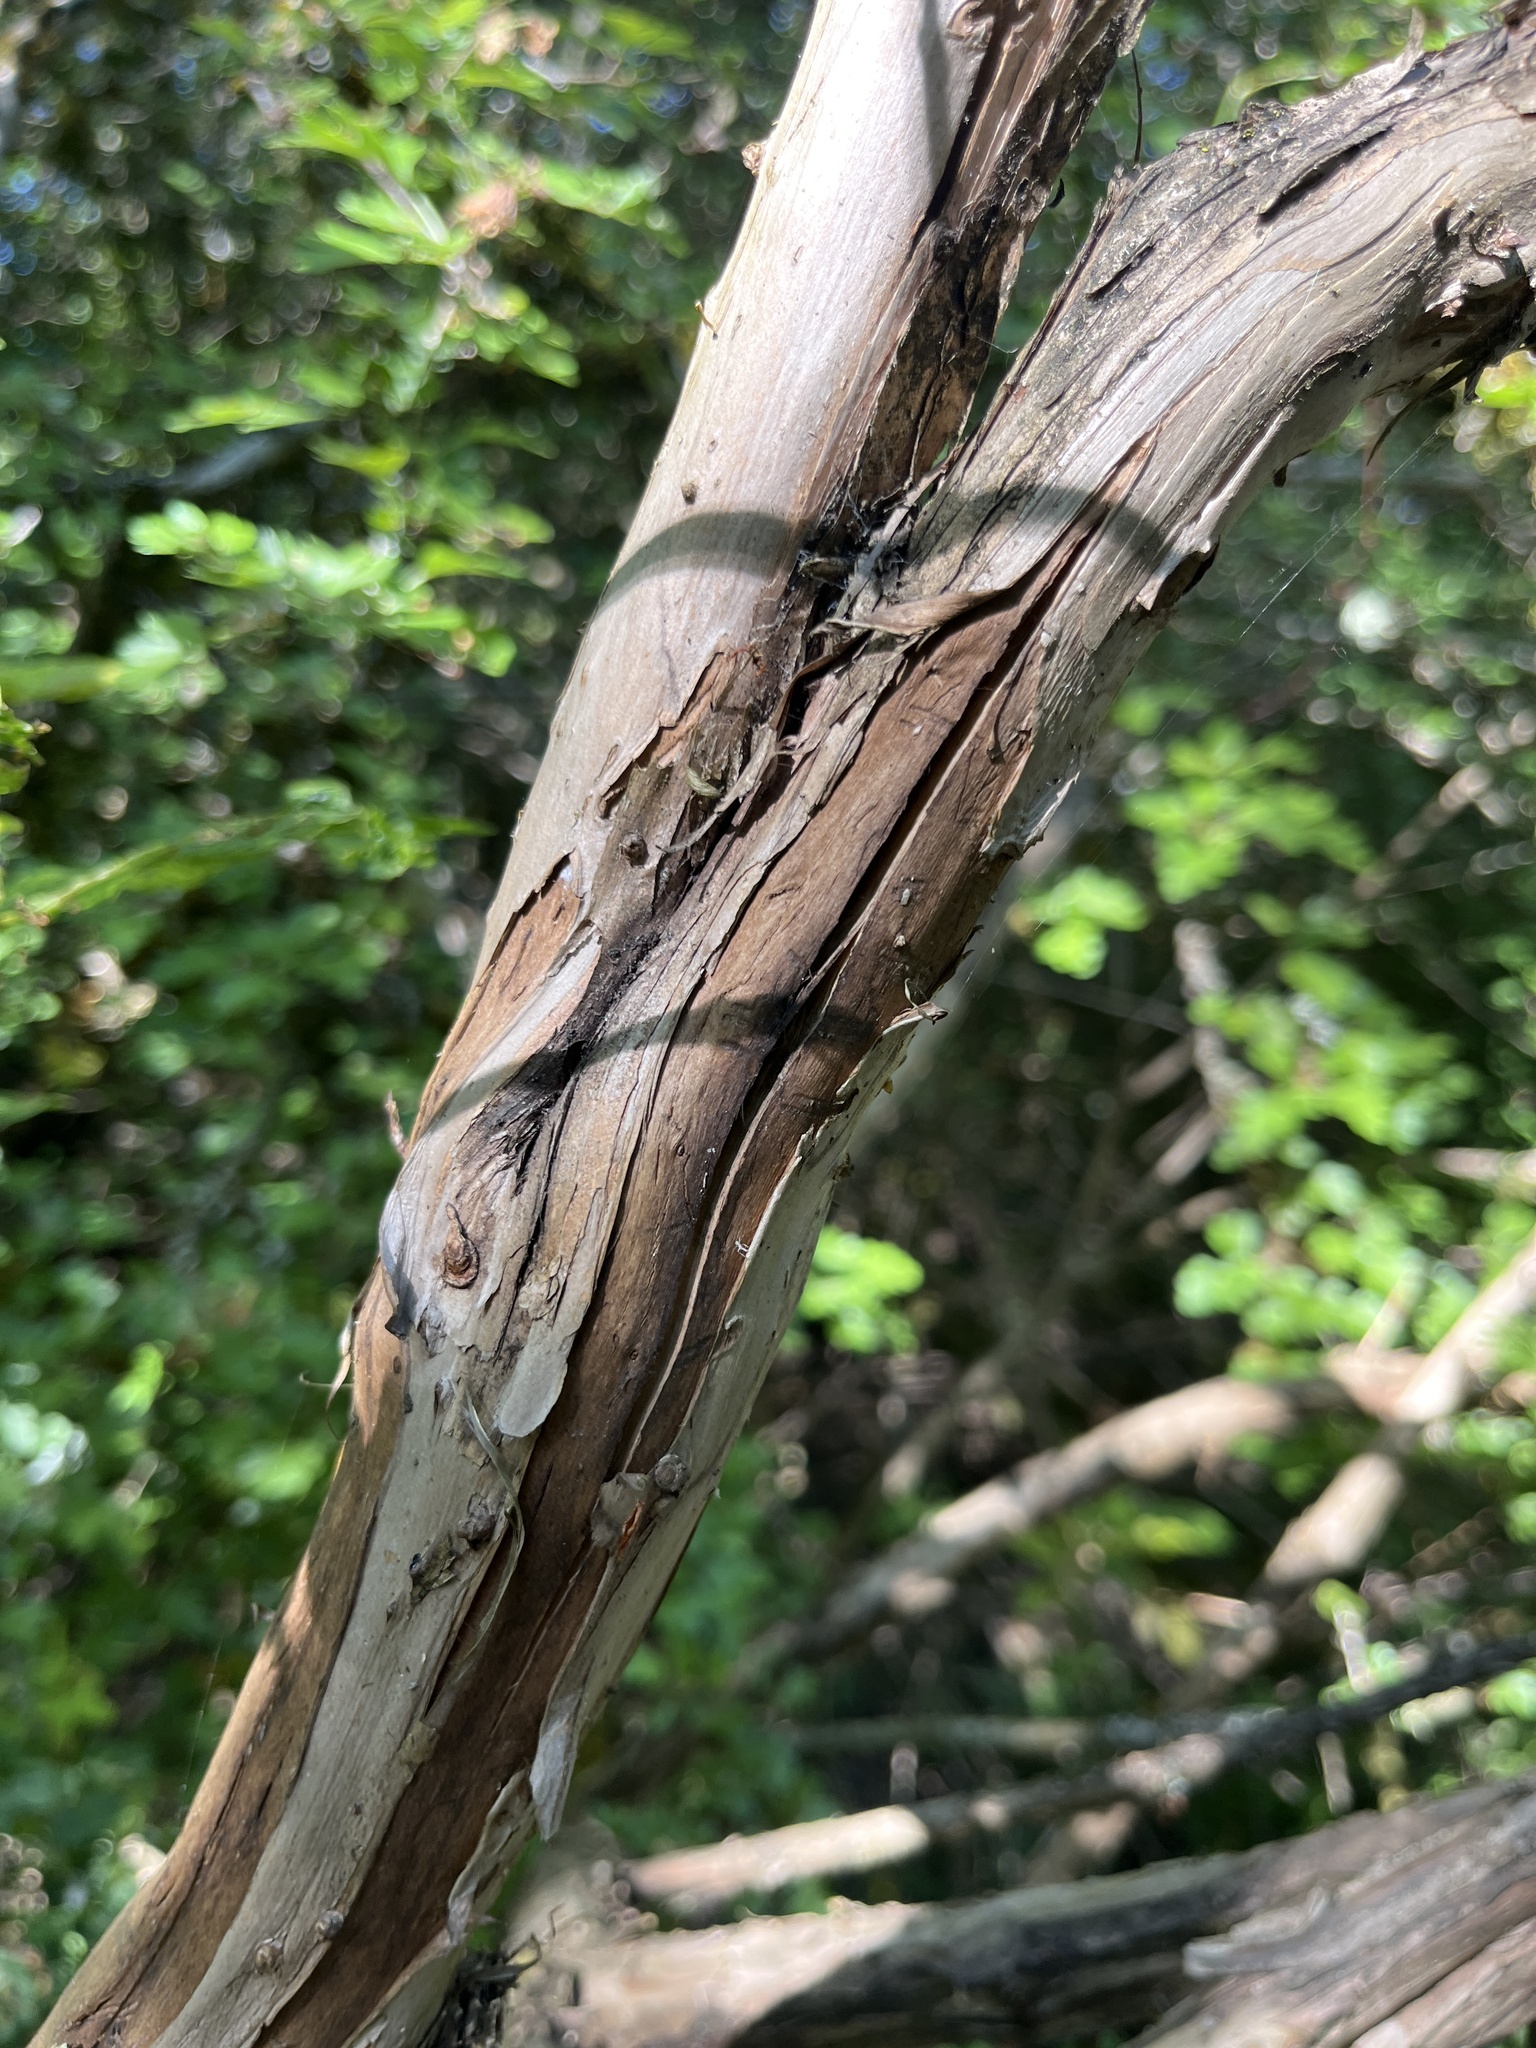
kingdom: Plantae
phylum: Tracheophyta
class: Magnoliopsida
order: Dipsacales
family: Caprifoliaceae
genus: Lonicera
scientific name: Lonicera involucrata
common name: Californian honeysuckle
